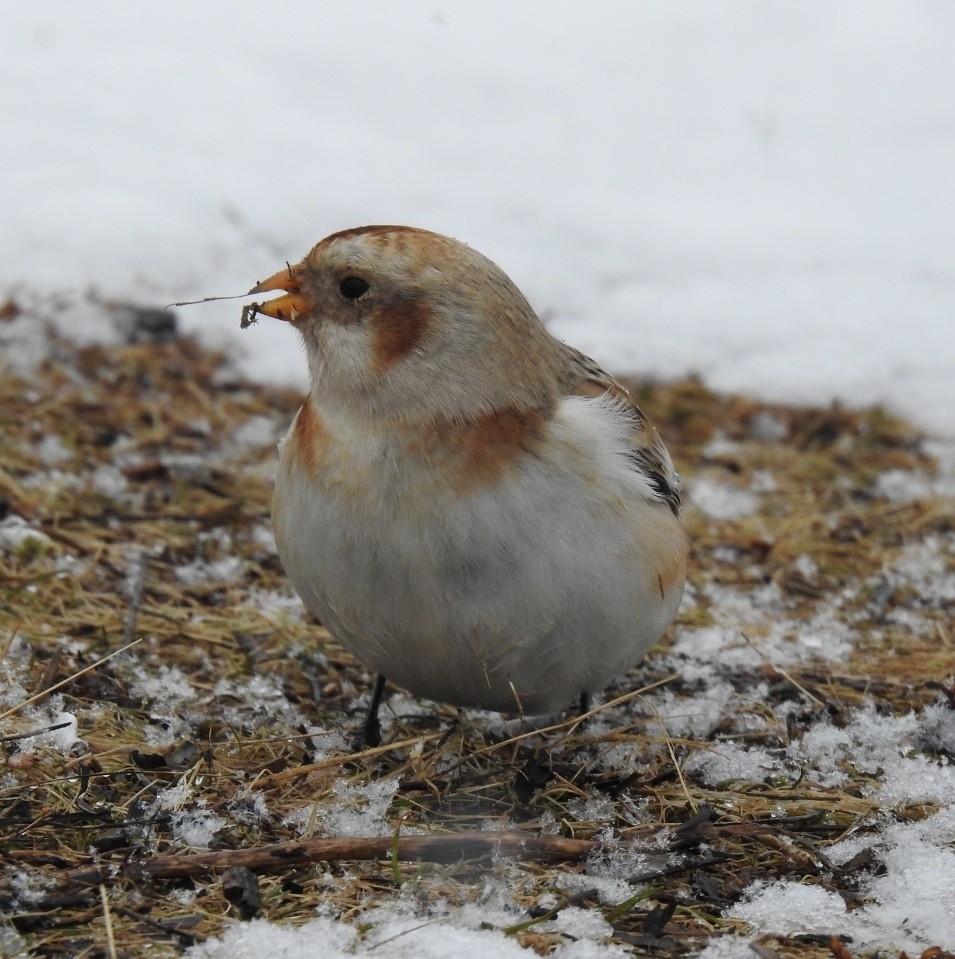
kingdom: Animalia
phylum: Chordata
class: Aves
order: Passeriformes
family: Calcariidae
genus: Plectrophenax
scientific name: Plectrophenax nivalis
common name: Snow bunting
